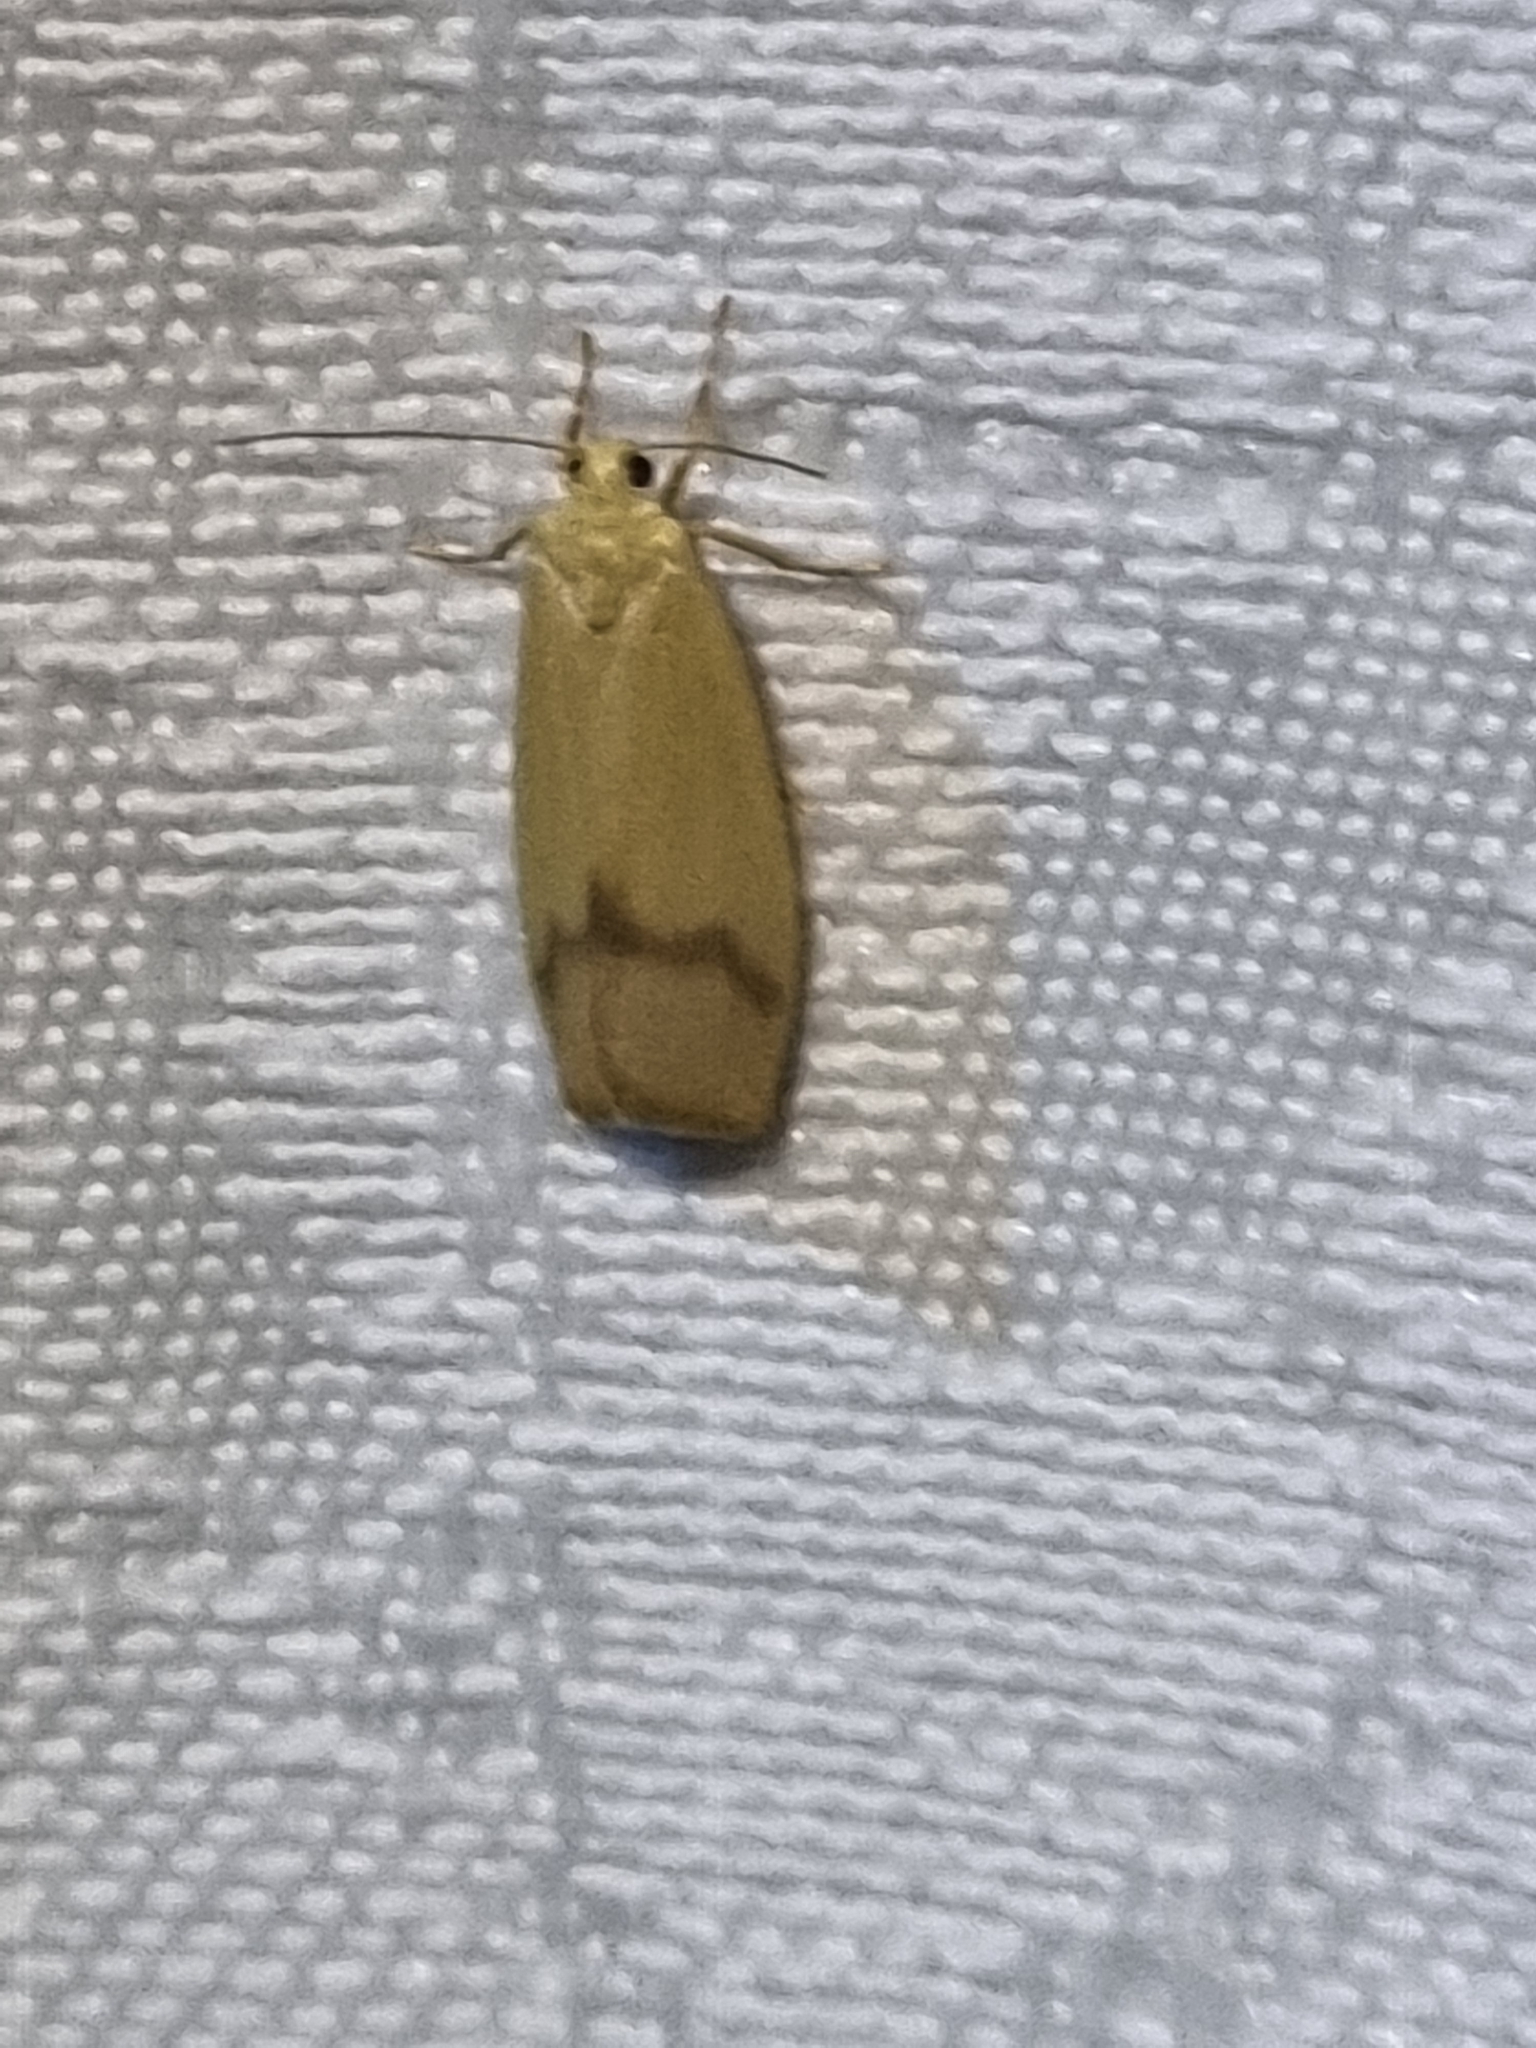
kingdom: Animalia
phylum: Arthropoda
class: Insecta
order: Lepidoptera
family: Erebidae
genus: Notata
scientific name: Notata modicus
